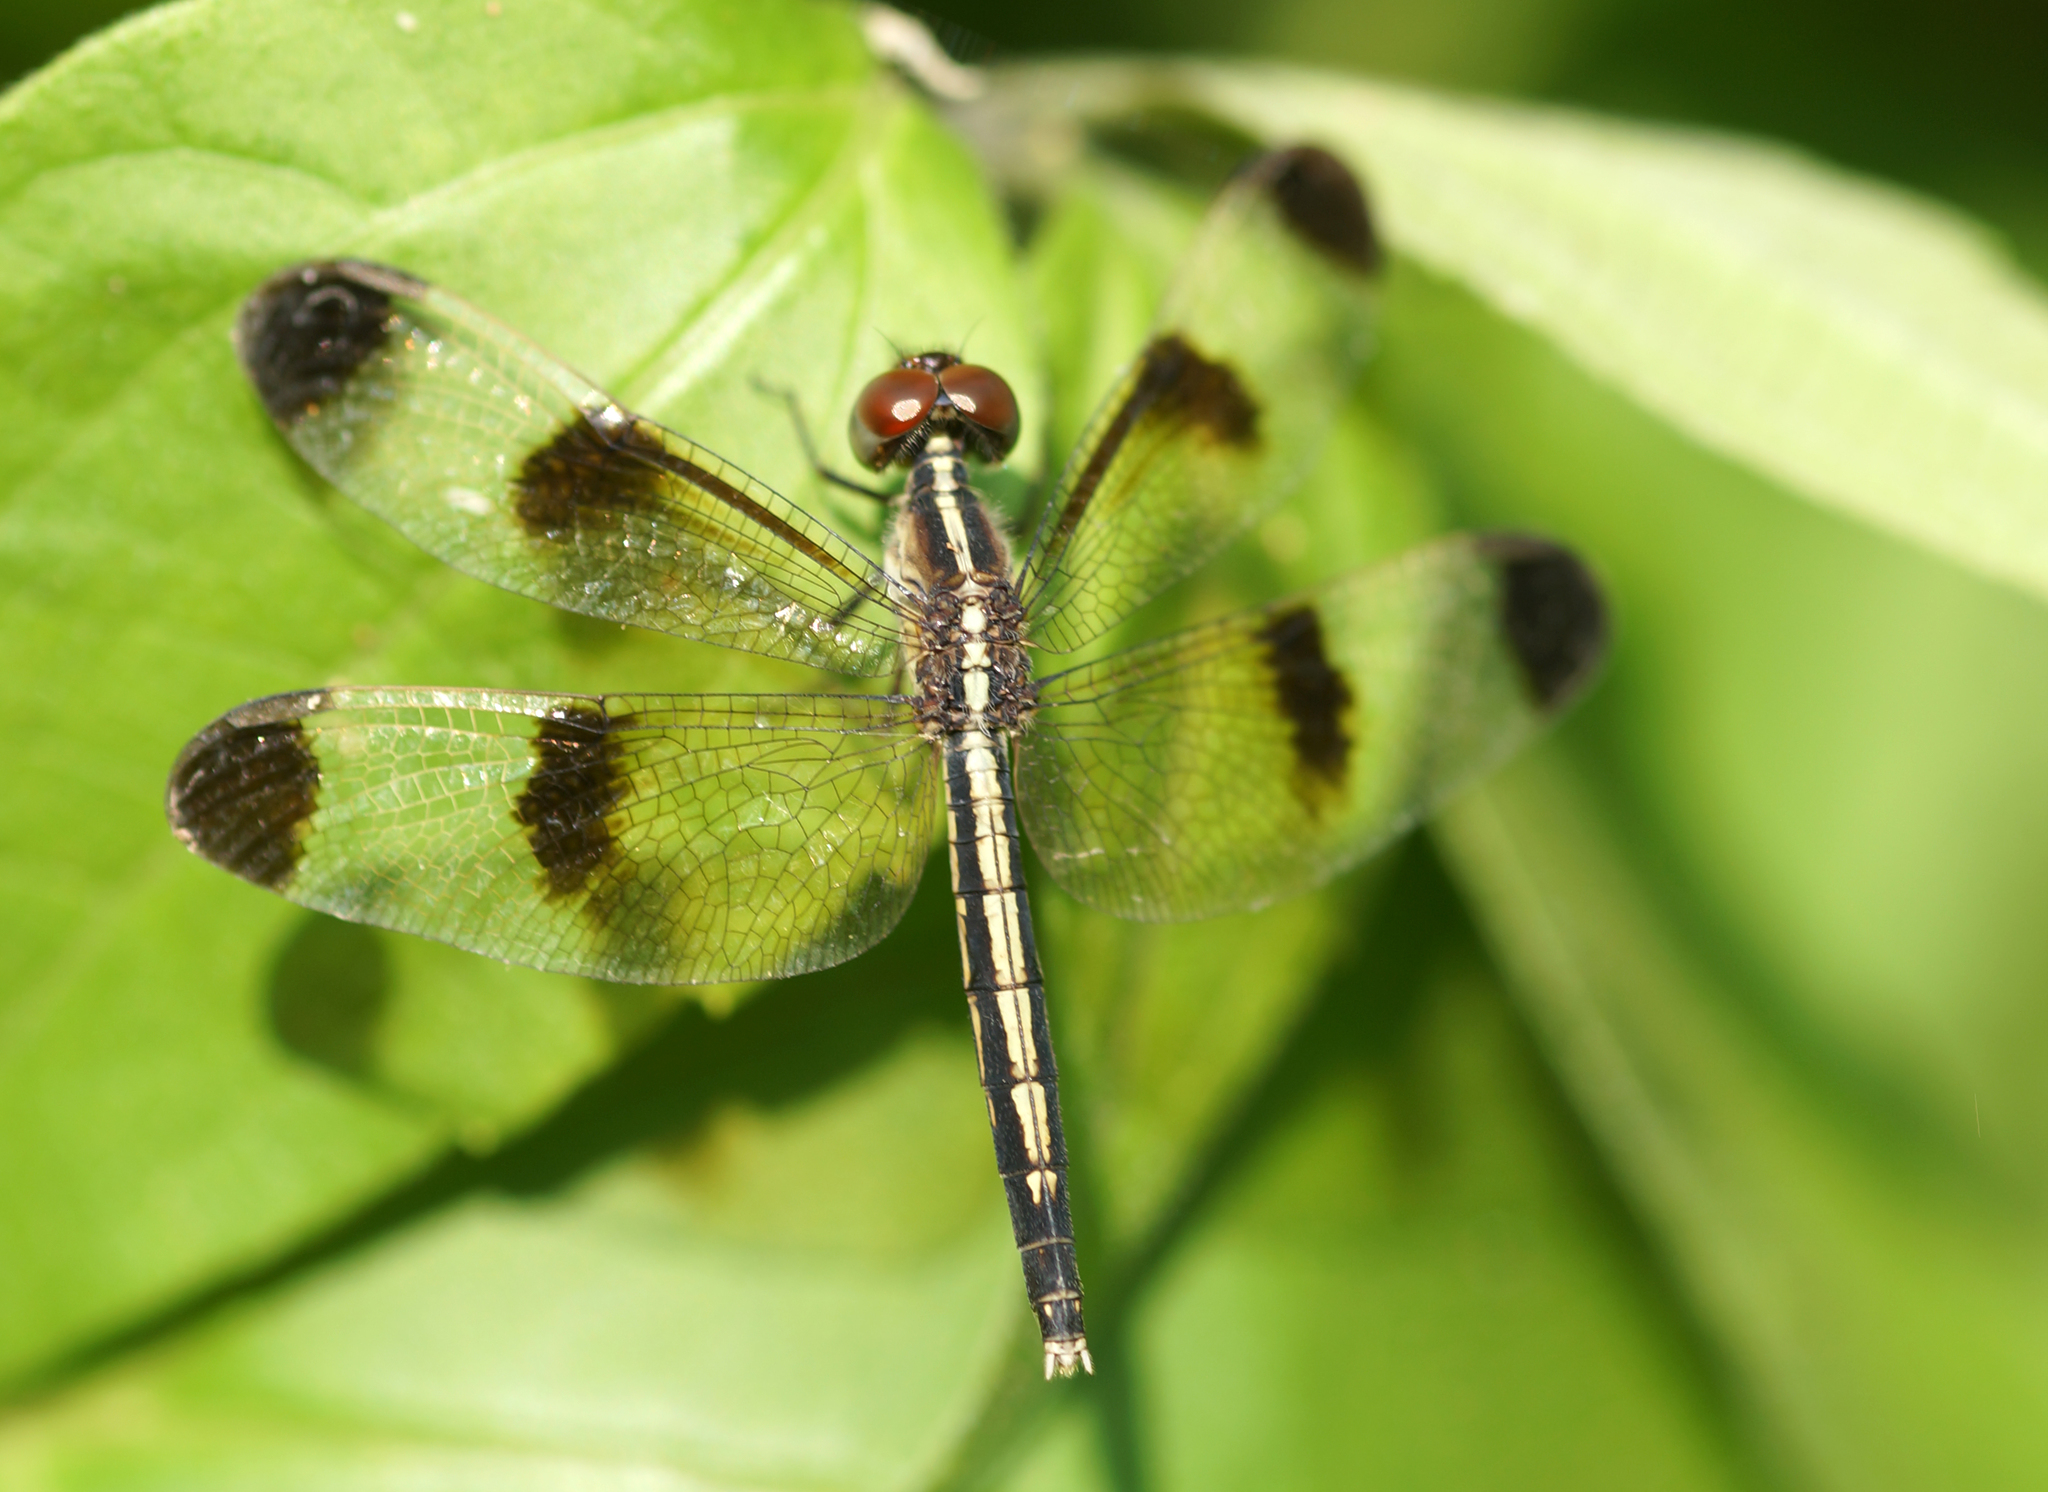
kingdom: Animalia
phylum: Arthropoda
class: Insecta
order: Odonata
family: Libellulidae
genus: Neurothemis
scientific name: Neurothemis tullia
